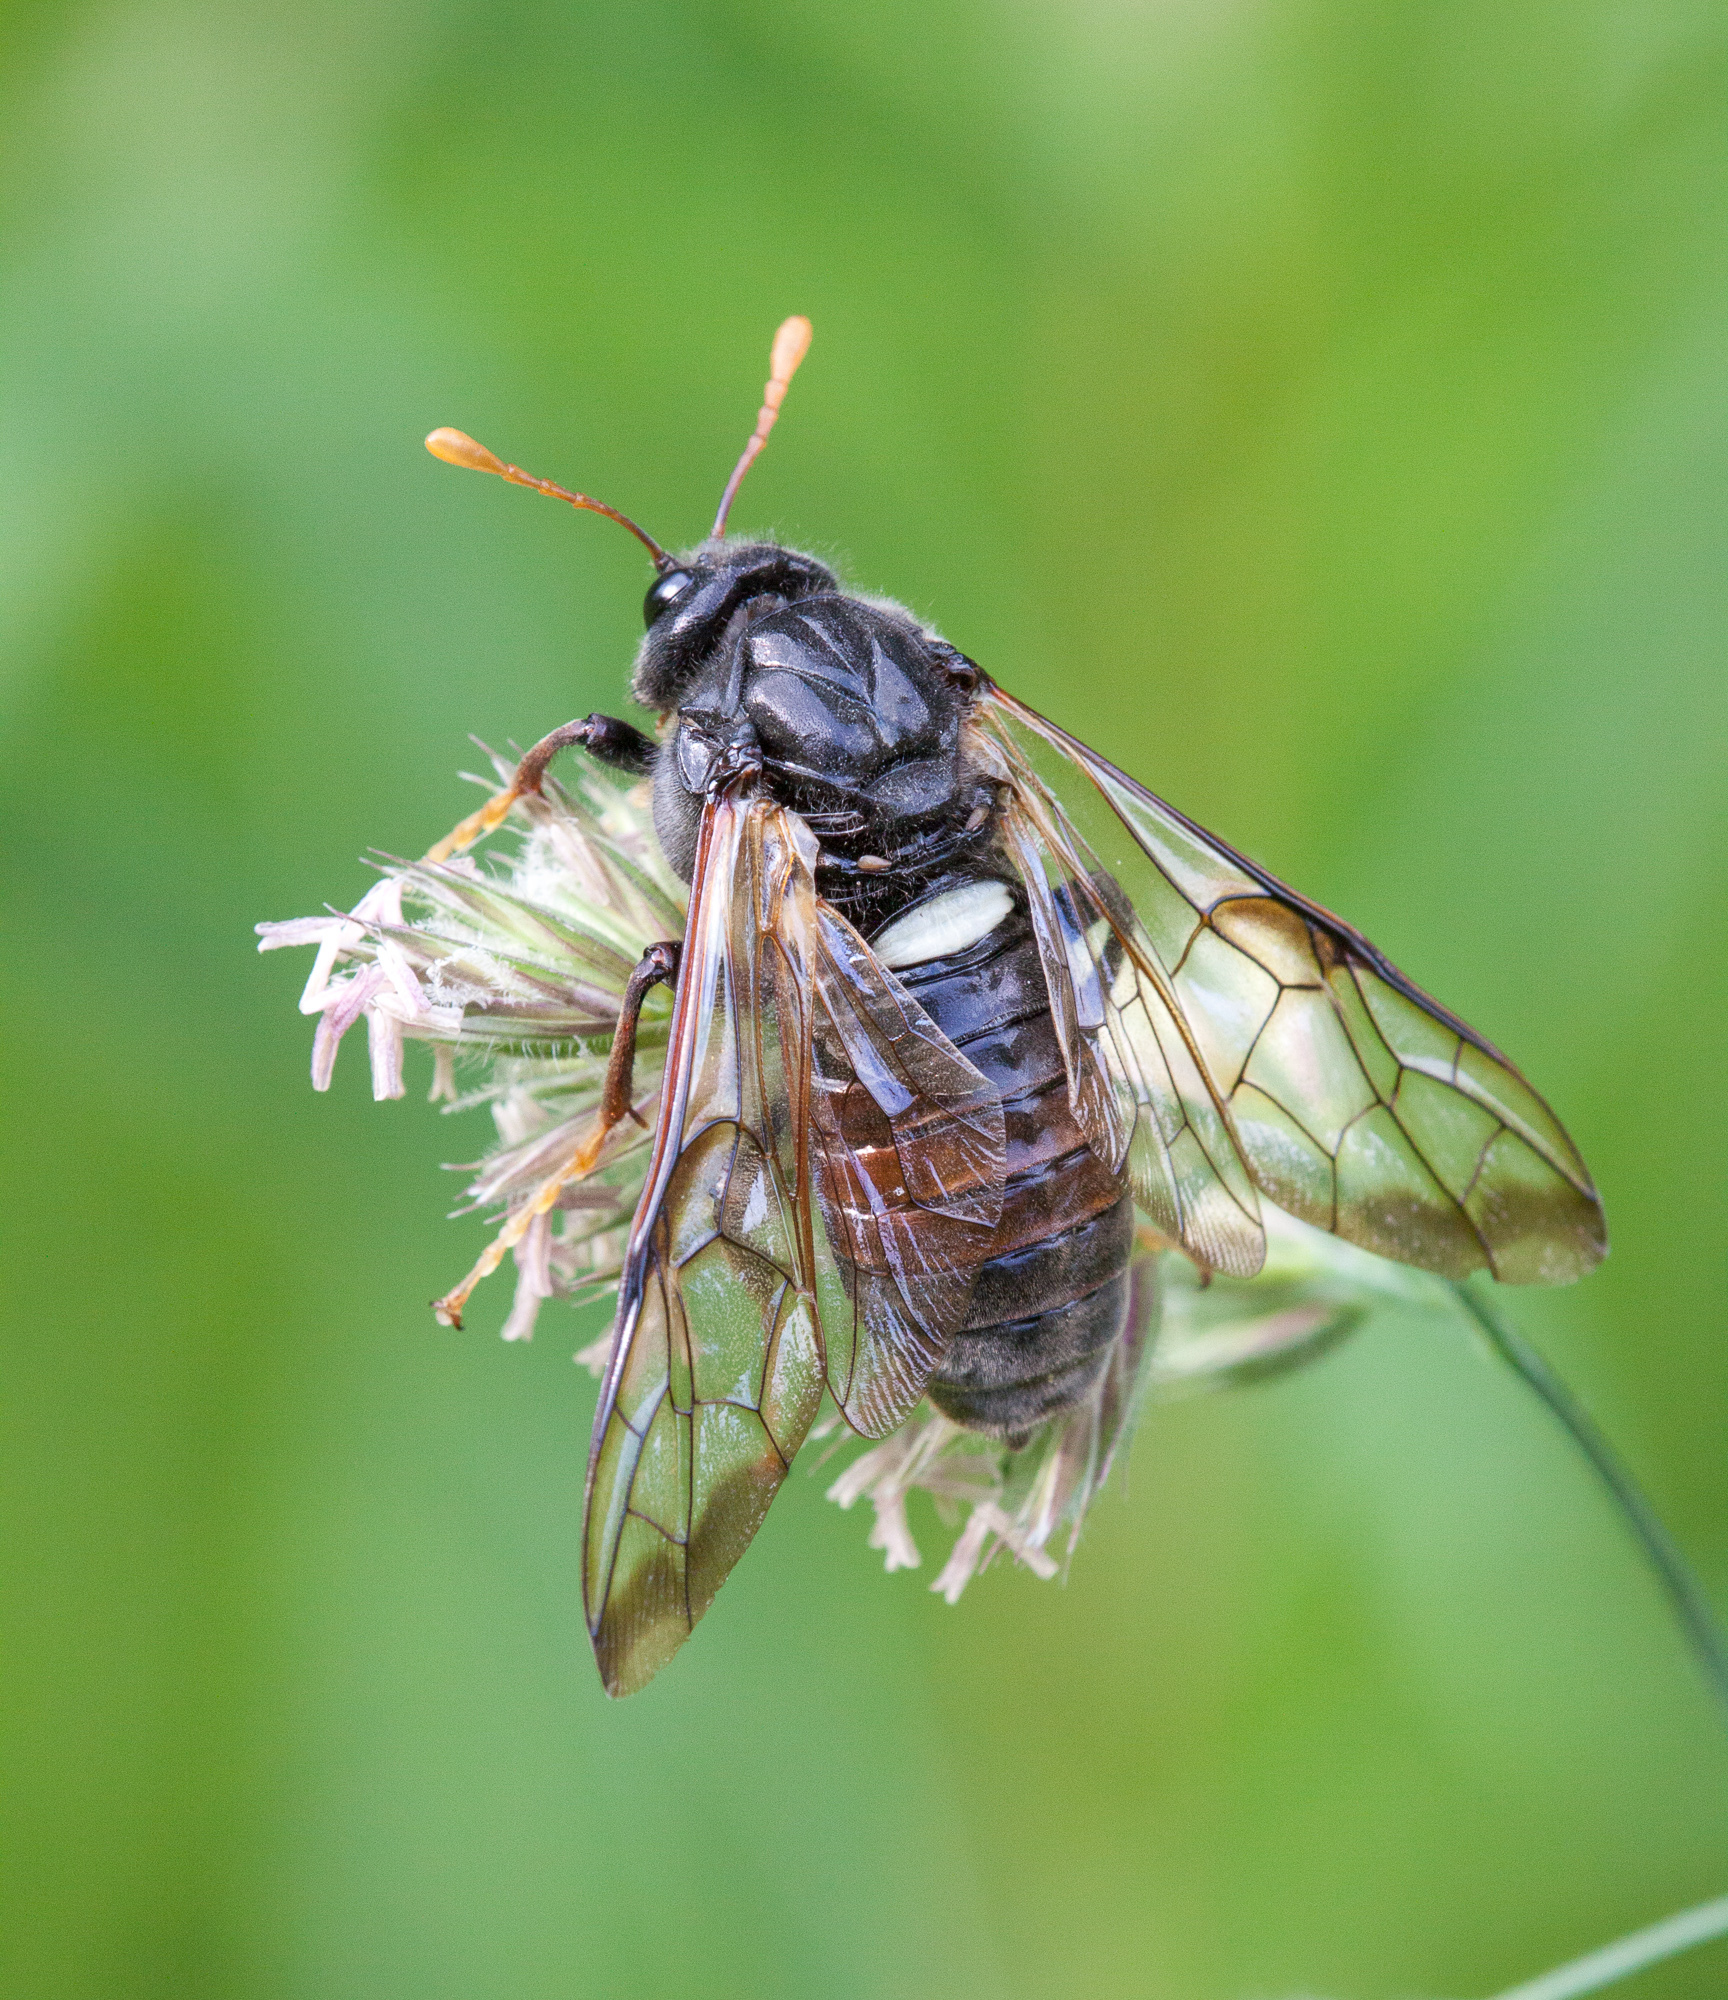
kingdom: Animalia
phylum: Arthropoda
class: Insecta
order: Hymenoptera
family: Cimbicidae
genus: Cimbex
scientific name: Cimbex femoratus
